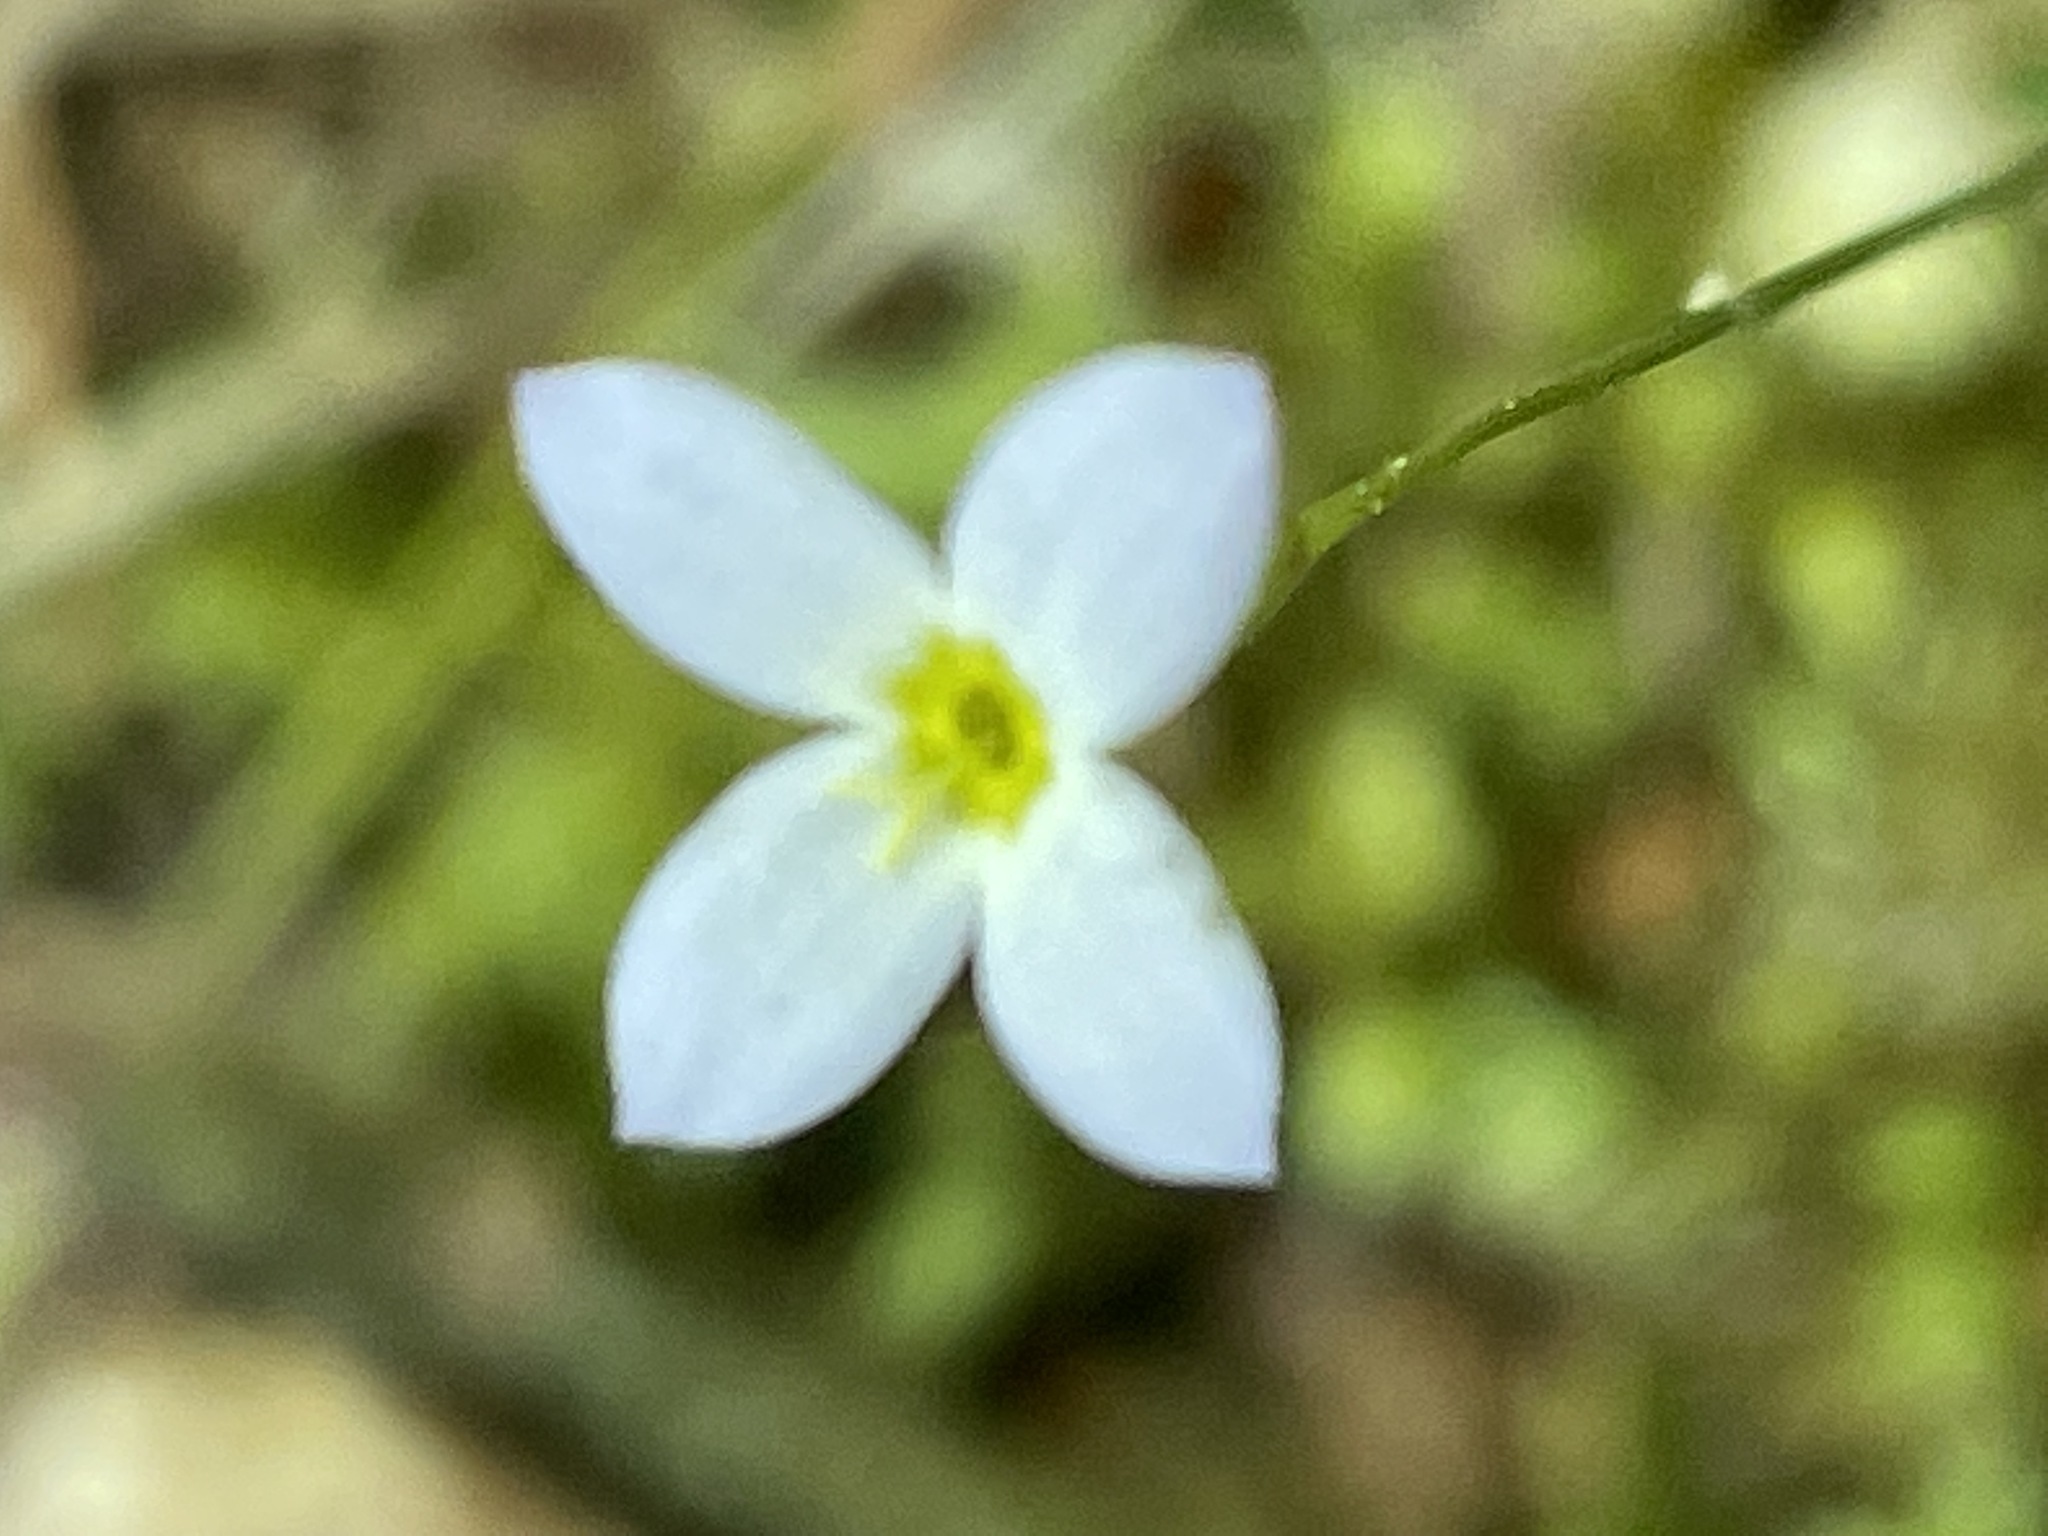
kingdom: Plantae
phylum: Tracheophyta
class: Magnoliopsida
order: Gentianales
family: Rubiaceae
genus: Houstonia
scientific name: Houstonia caerulea
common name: Bluets
